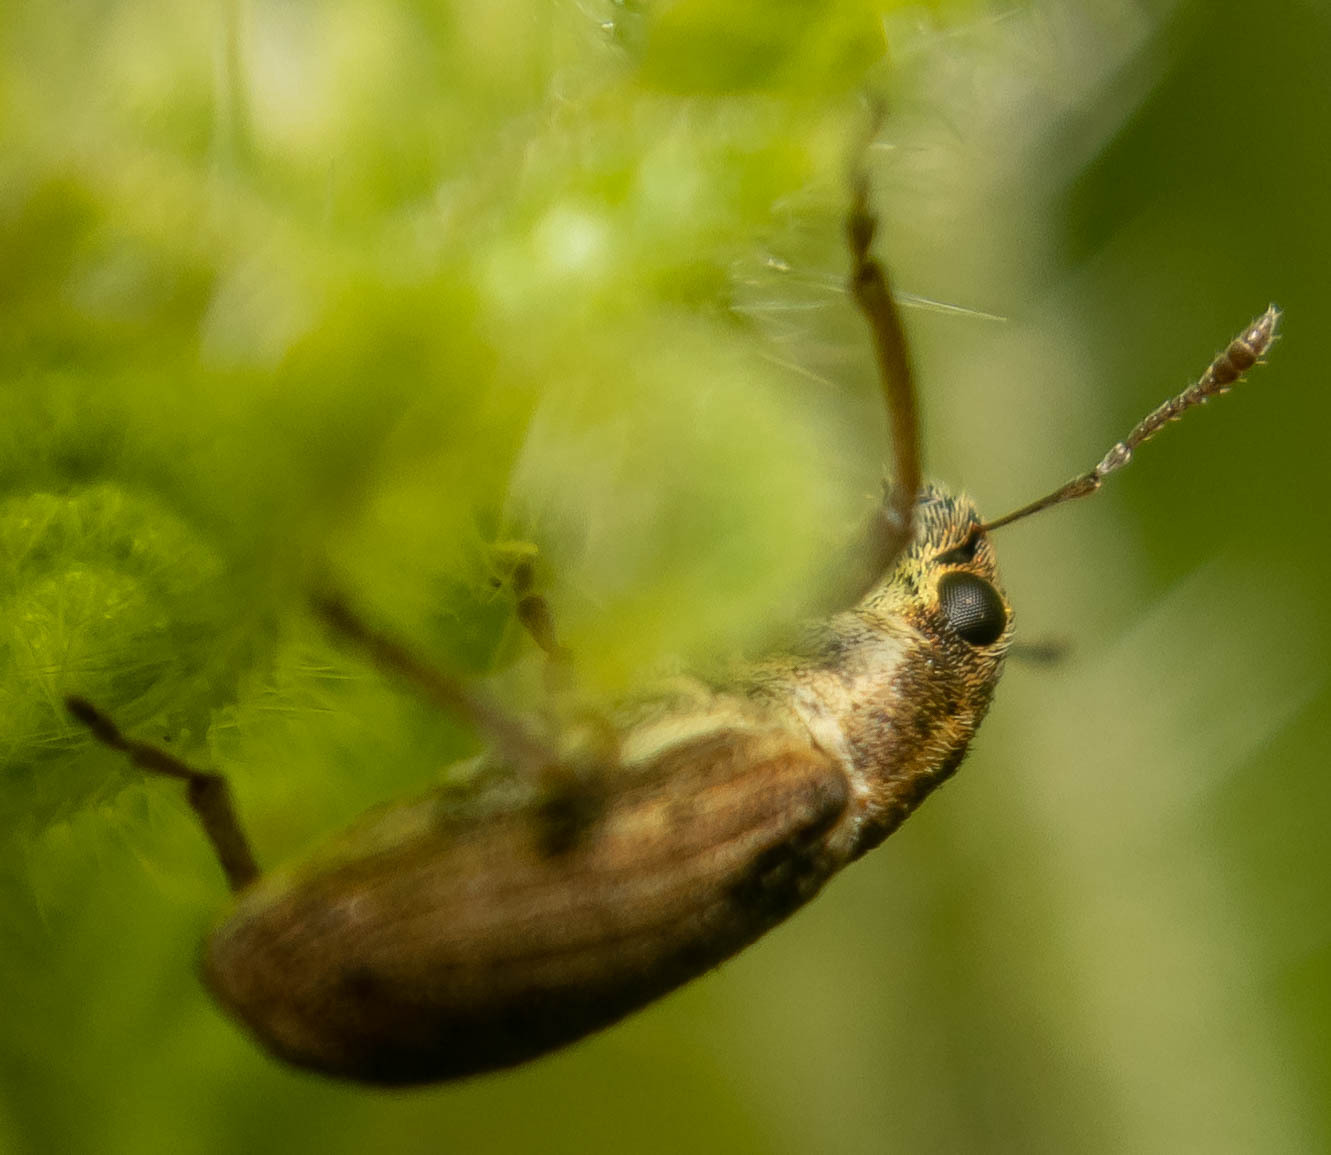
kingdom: Animalia
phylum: Arthropoda
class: Insecta
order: Coleoptera
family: Curculionidae
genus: Sitona
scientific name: Sitona lineatus
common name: Weevil
